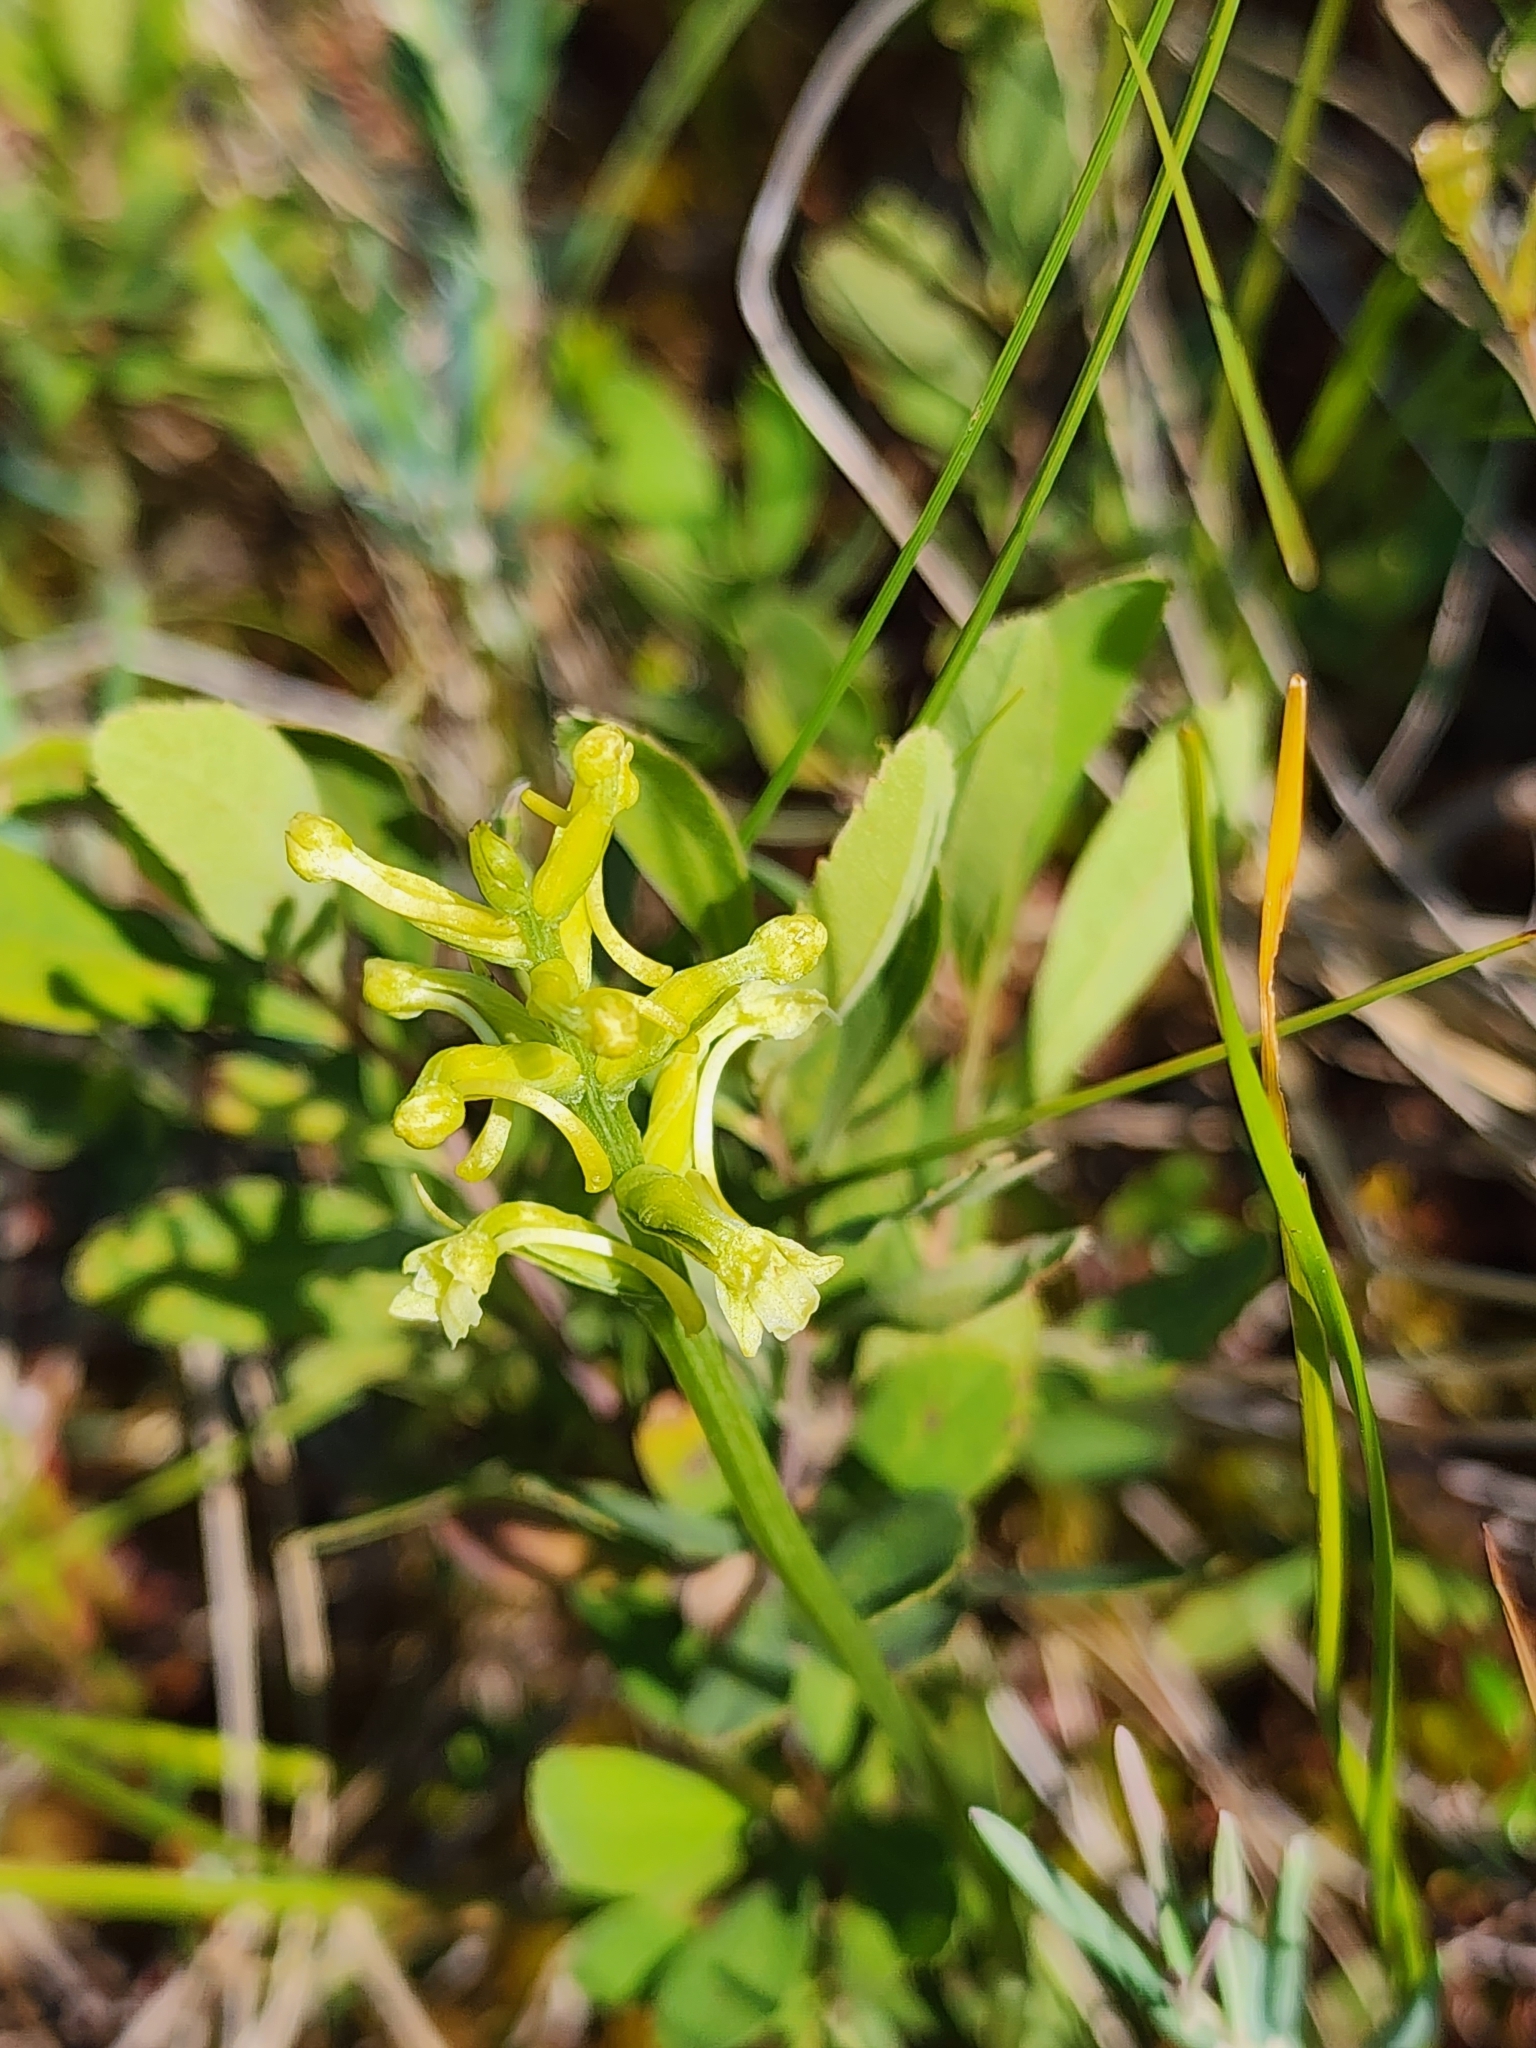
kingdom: Plantae
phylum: Tracheophyta
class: Liliopsida
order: Asparagales
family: Orchidaceae
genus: Platanthera
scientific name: Platanthera clavellata
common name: Club-spur orchid
